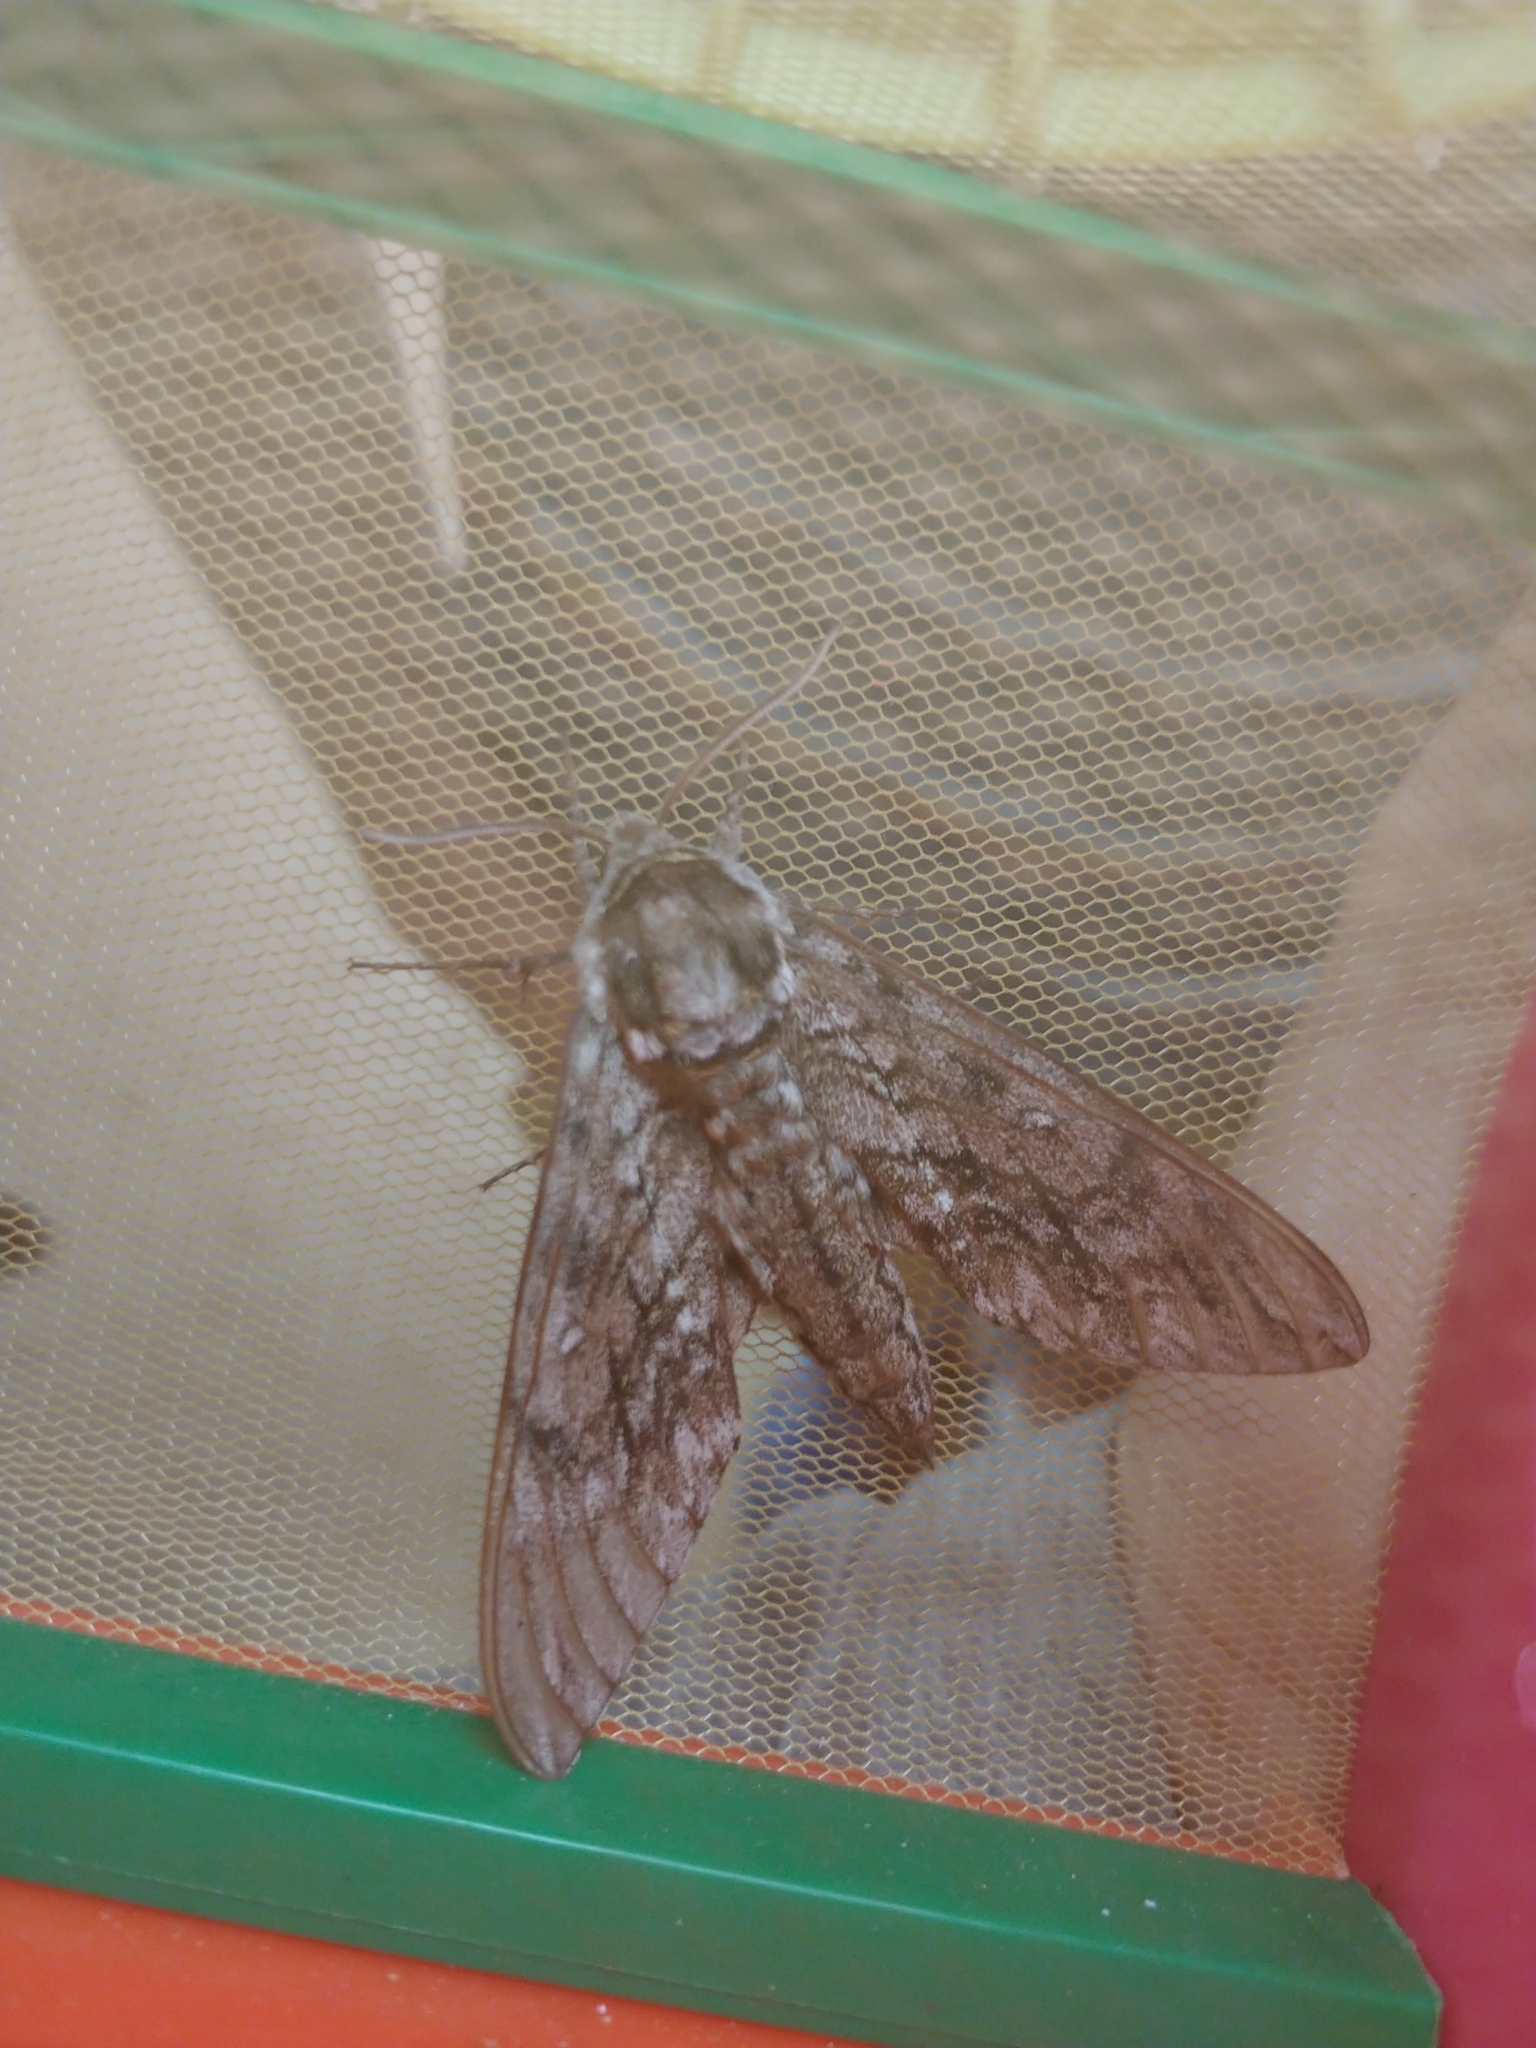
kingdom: Animalia
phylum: Arthropoda
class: Insecta
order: Lepidoptera
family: Sphingidae
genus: Ceratomia
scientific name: Ceratomia undulosa
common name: Waved sphinx
